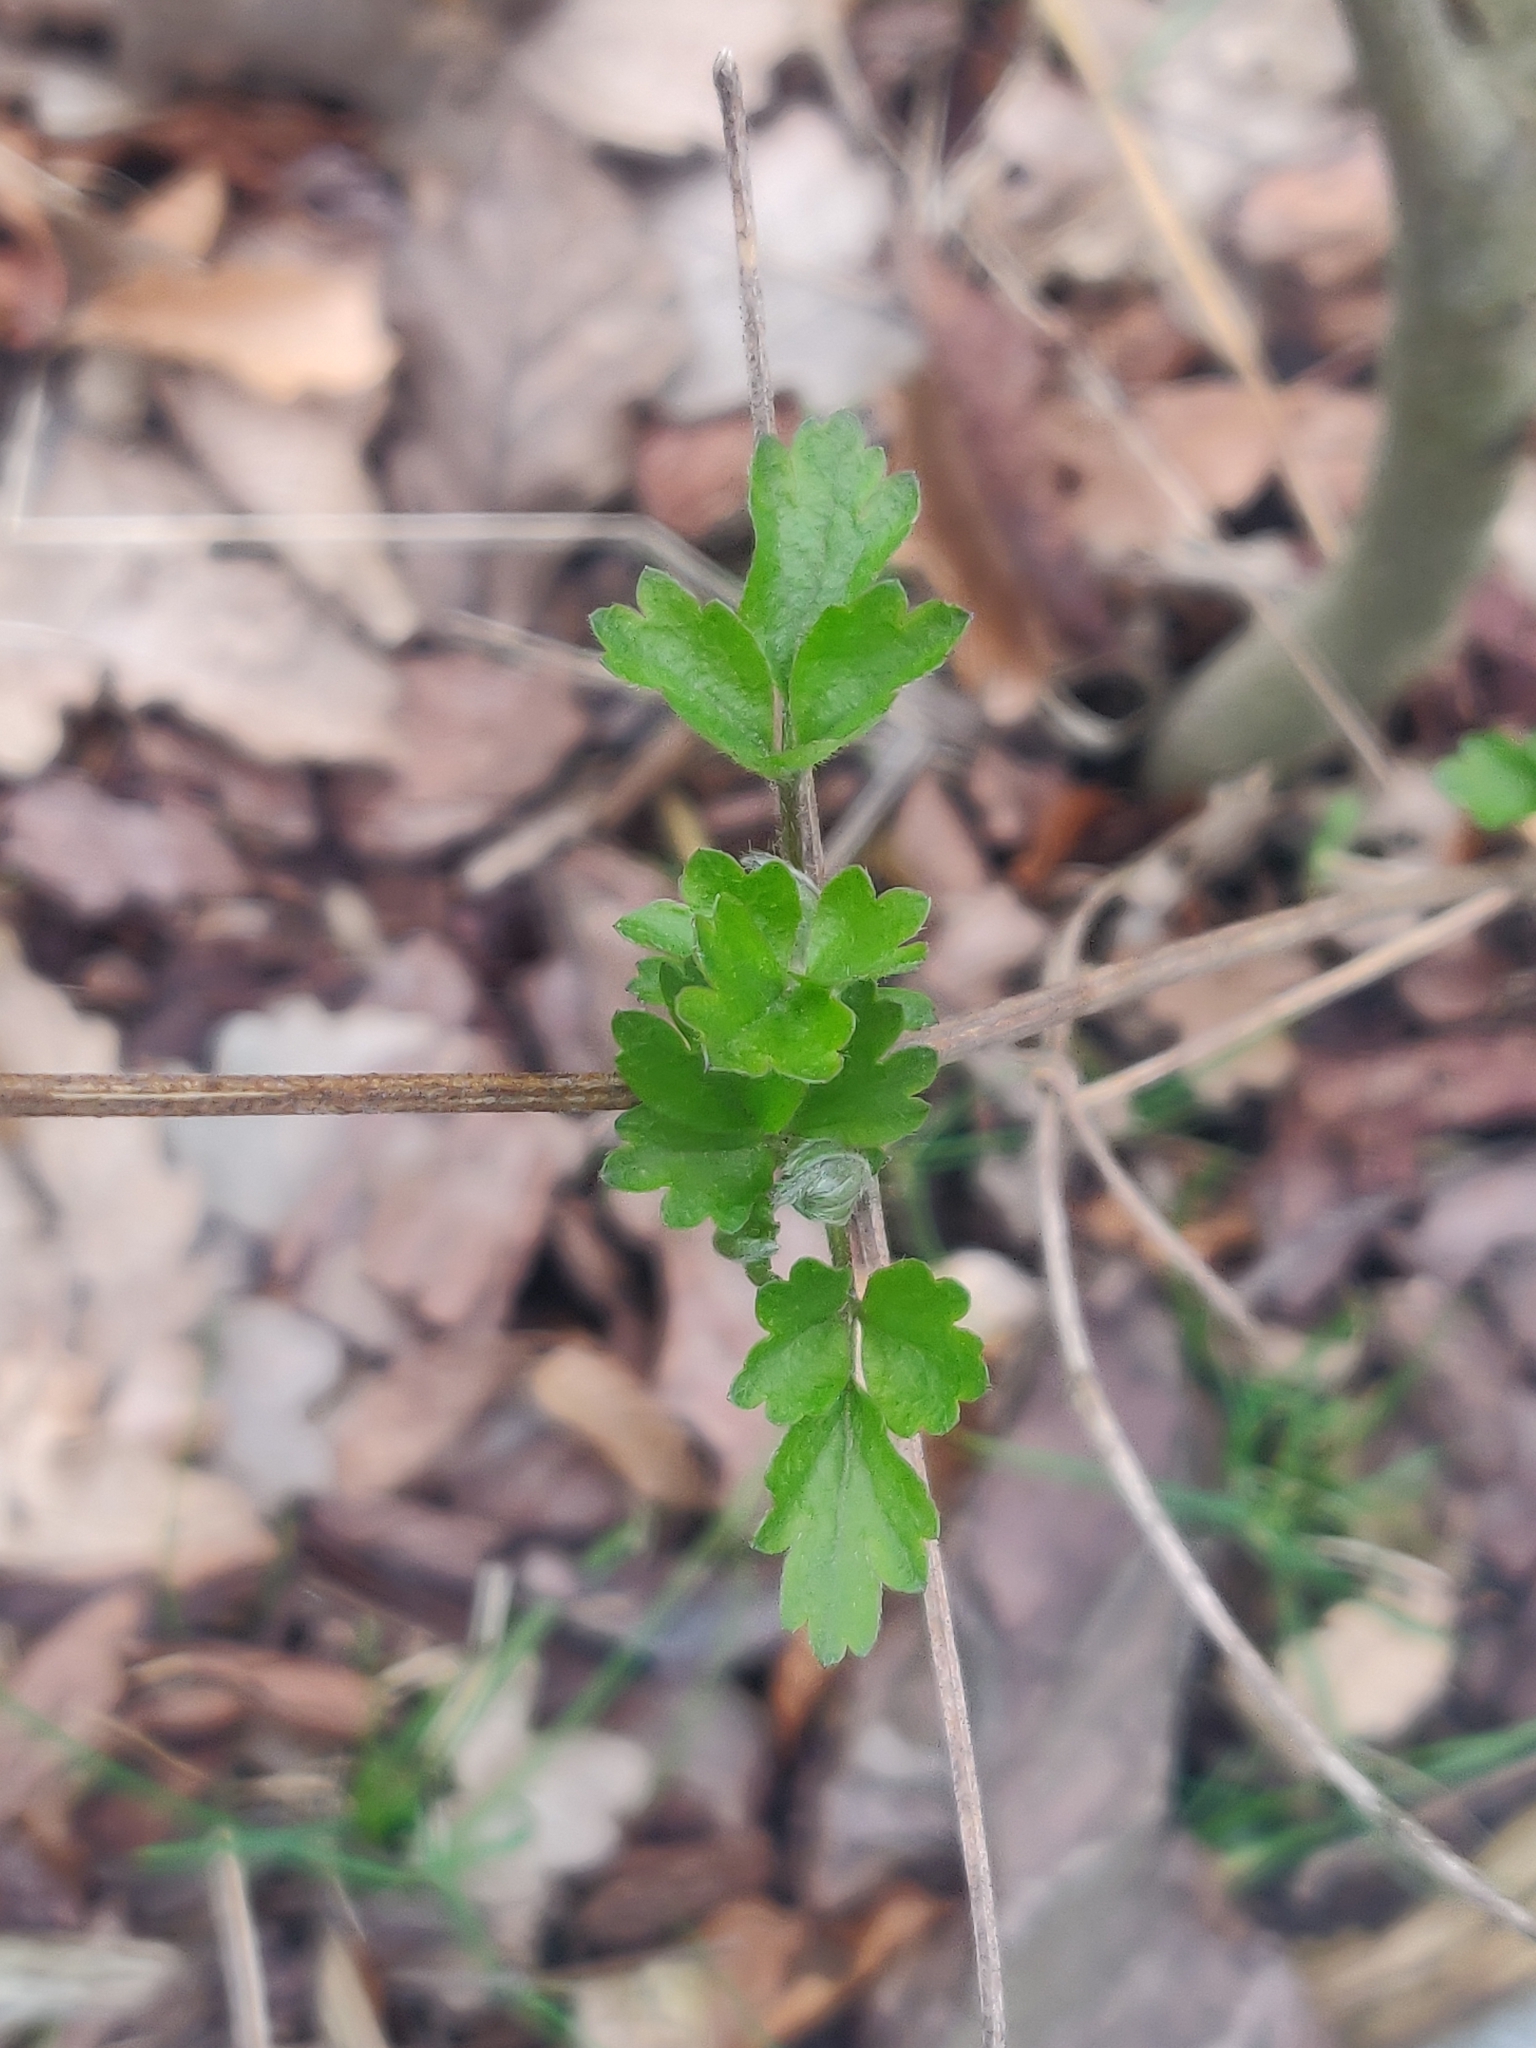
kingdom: Plantae
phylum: Tracheophyta
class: Magnoliopsida
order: Ranunculales
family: Ranunculaceae
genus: Clematis
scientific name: Clematis vitalba
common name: Evergreen clematis
